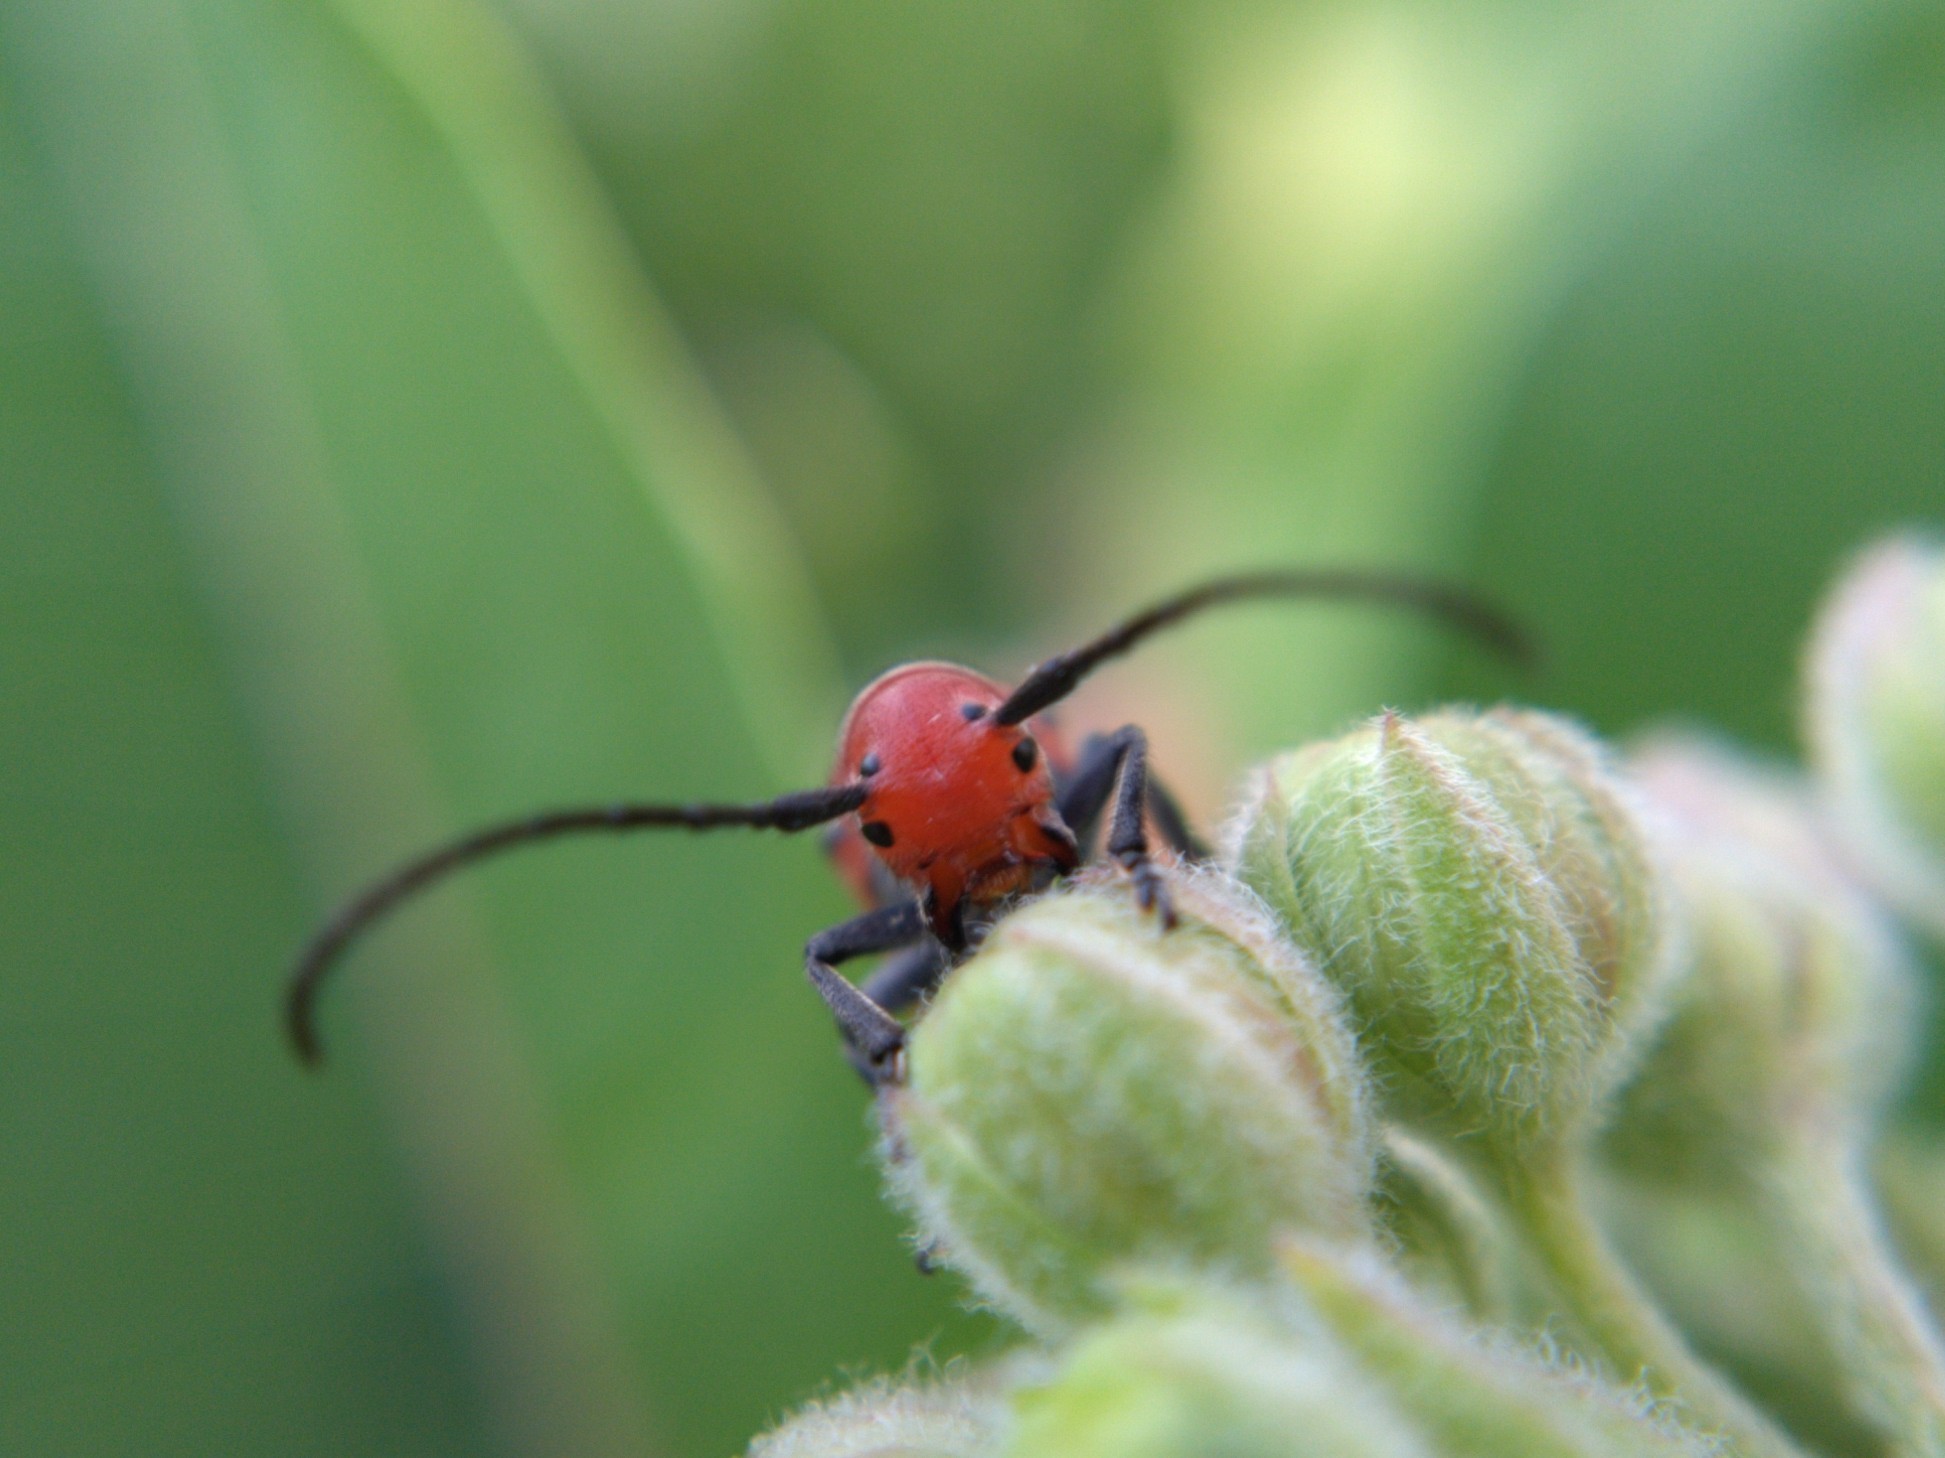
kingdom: Animalia
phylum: Arthropoda
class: Insecta
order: Coleoptera
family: Cerambycidae
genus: Tetraopes
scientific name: Tetraopes tetrophthalmus
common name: Red milkweed beetle
